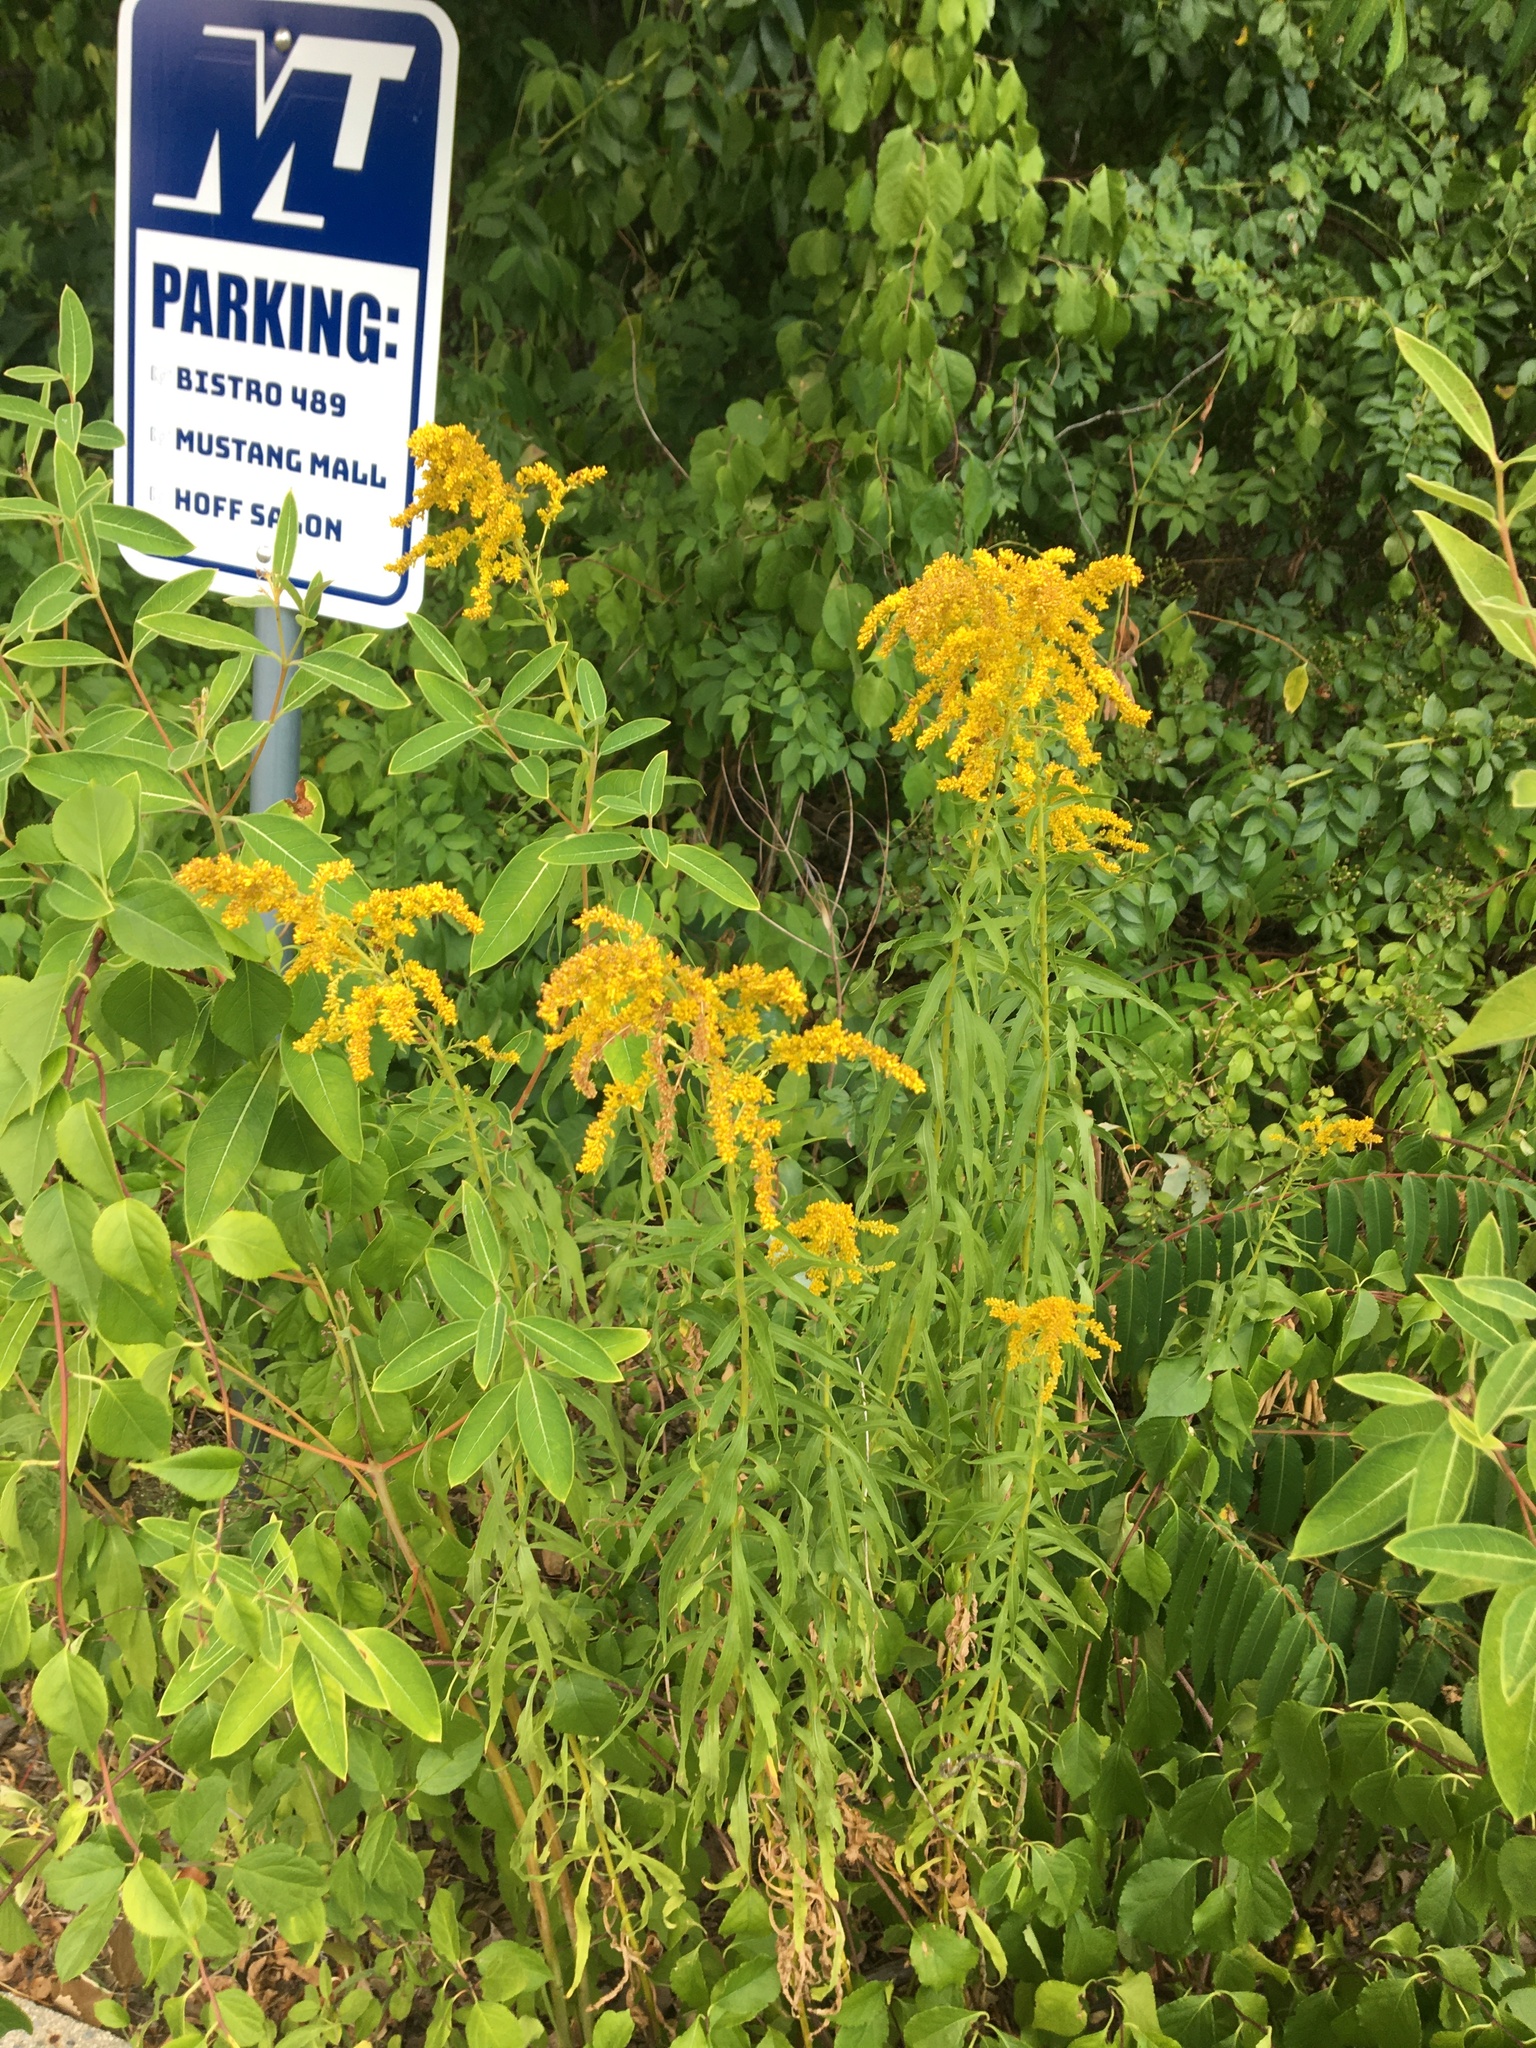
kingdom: Plantae
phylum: Tracheophyta
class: Magnoliopsida
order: Asterales
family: Asteraceae
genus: Solidago
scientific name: Solidago canadensis
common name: Canada goldenrod
